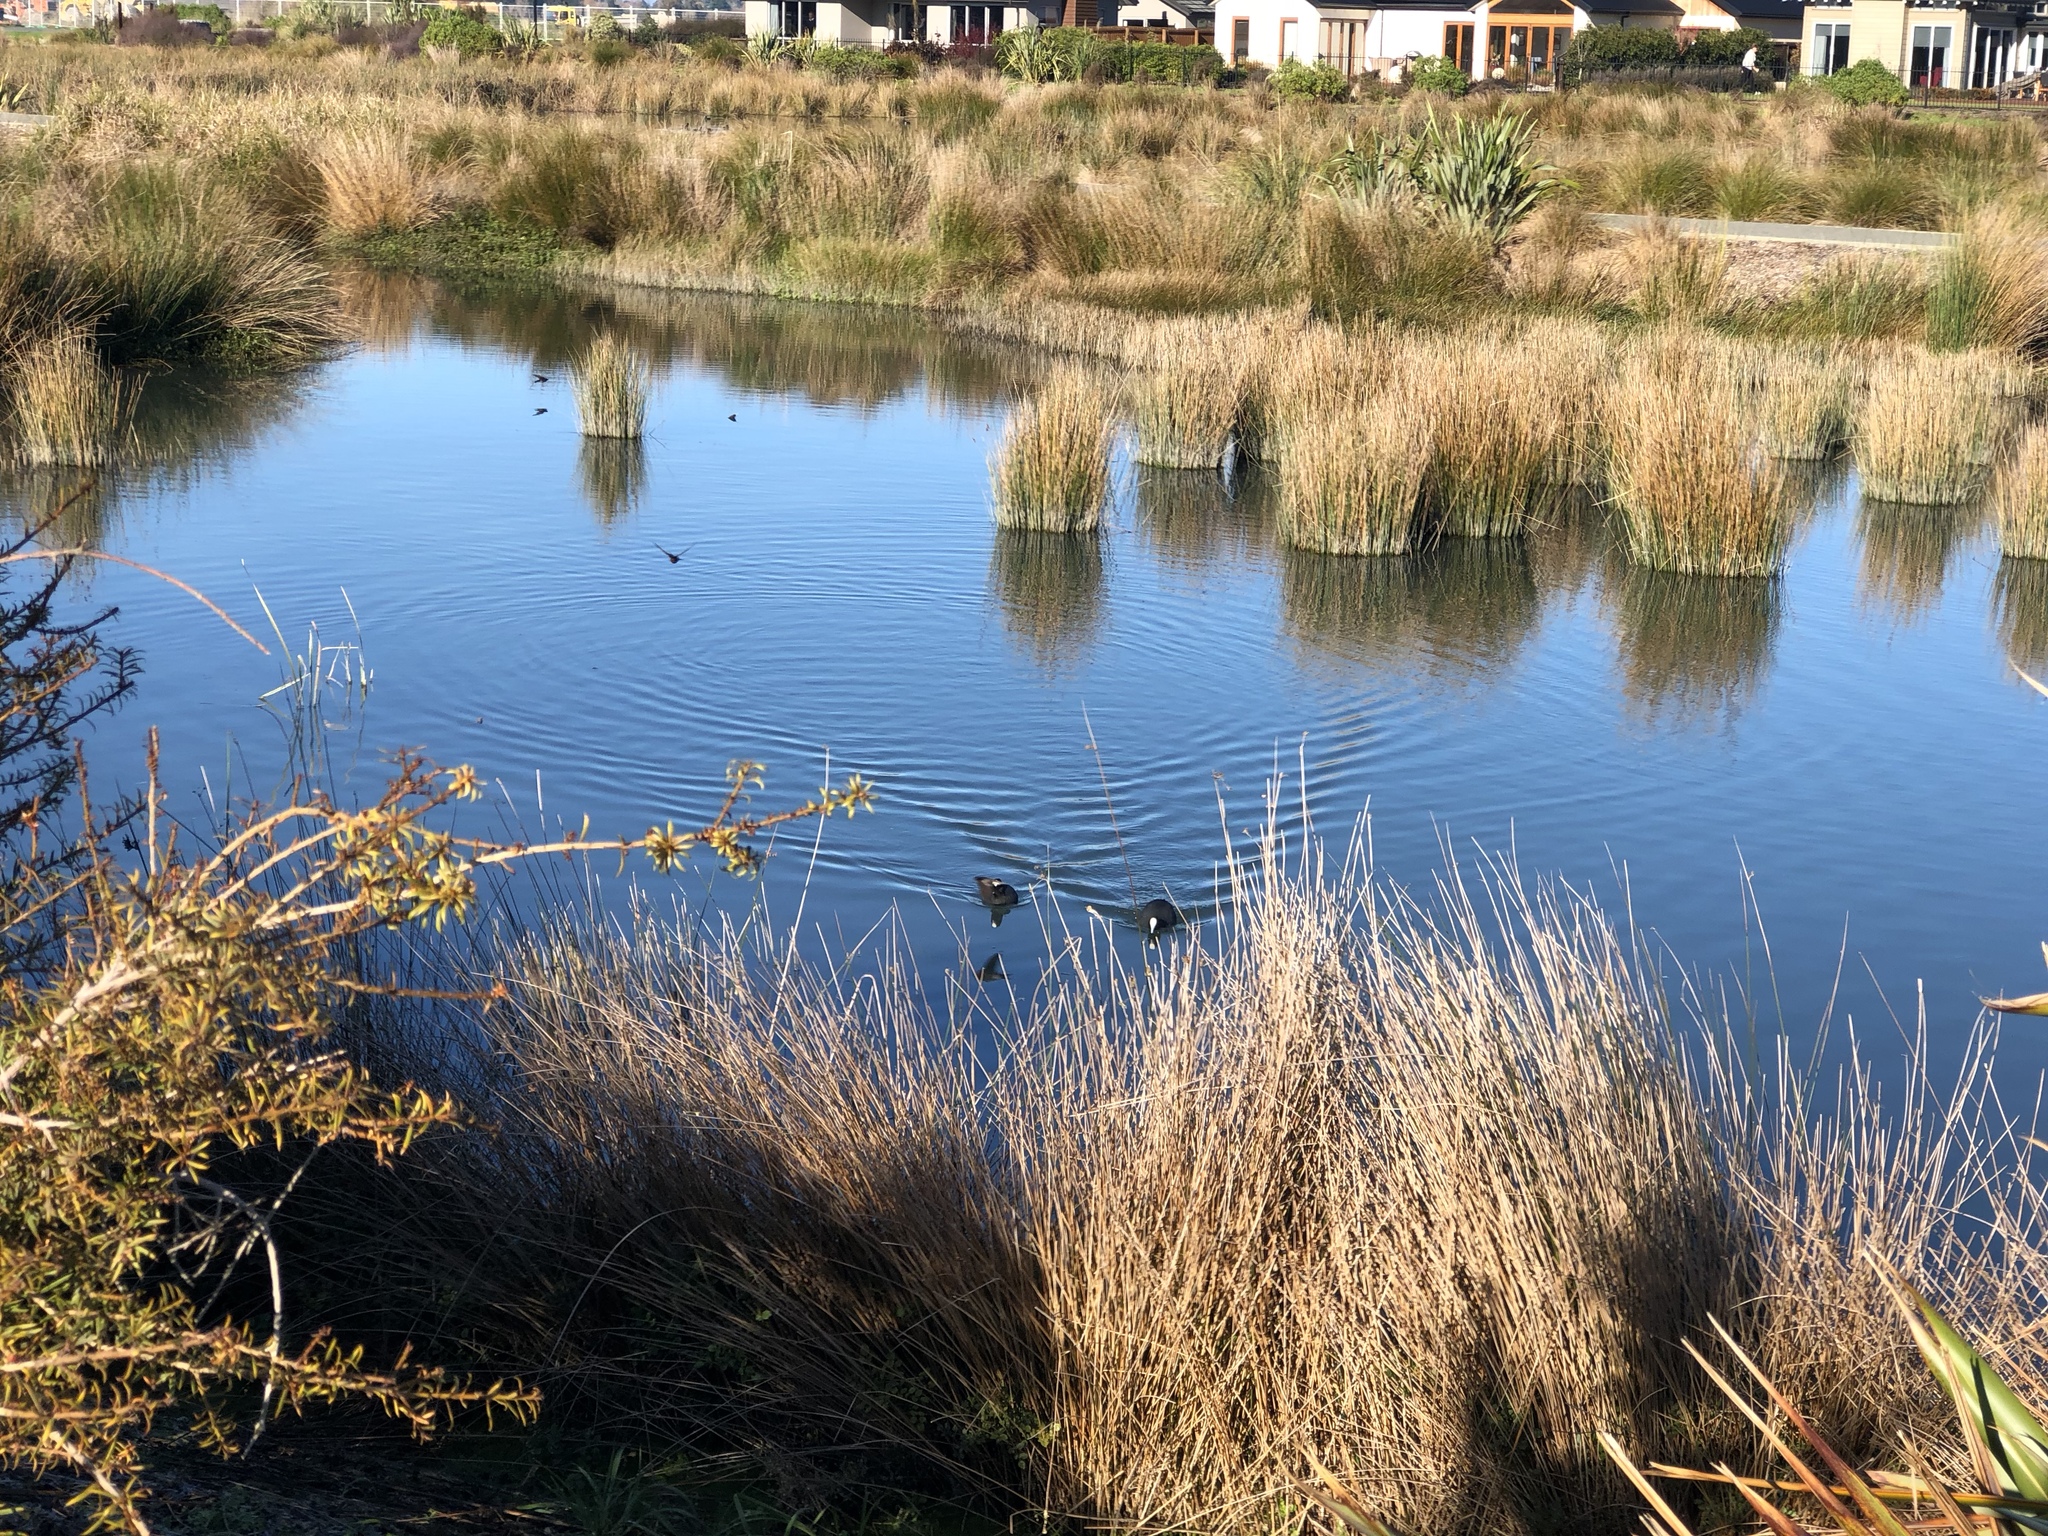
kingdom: Animalia
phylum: Chordata
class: Aves
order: Gruiformes
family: Rallidae
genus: Fulica
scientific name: Fulica atra
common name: Eurasian coot
